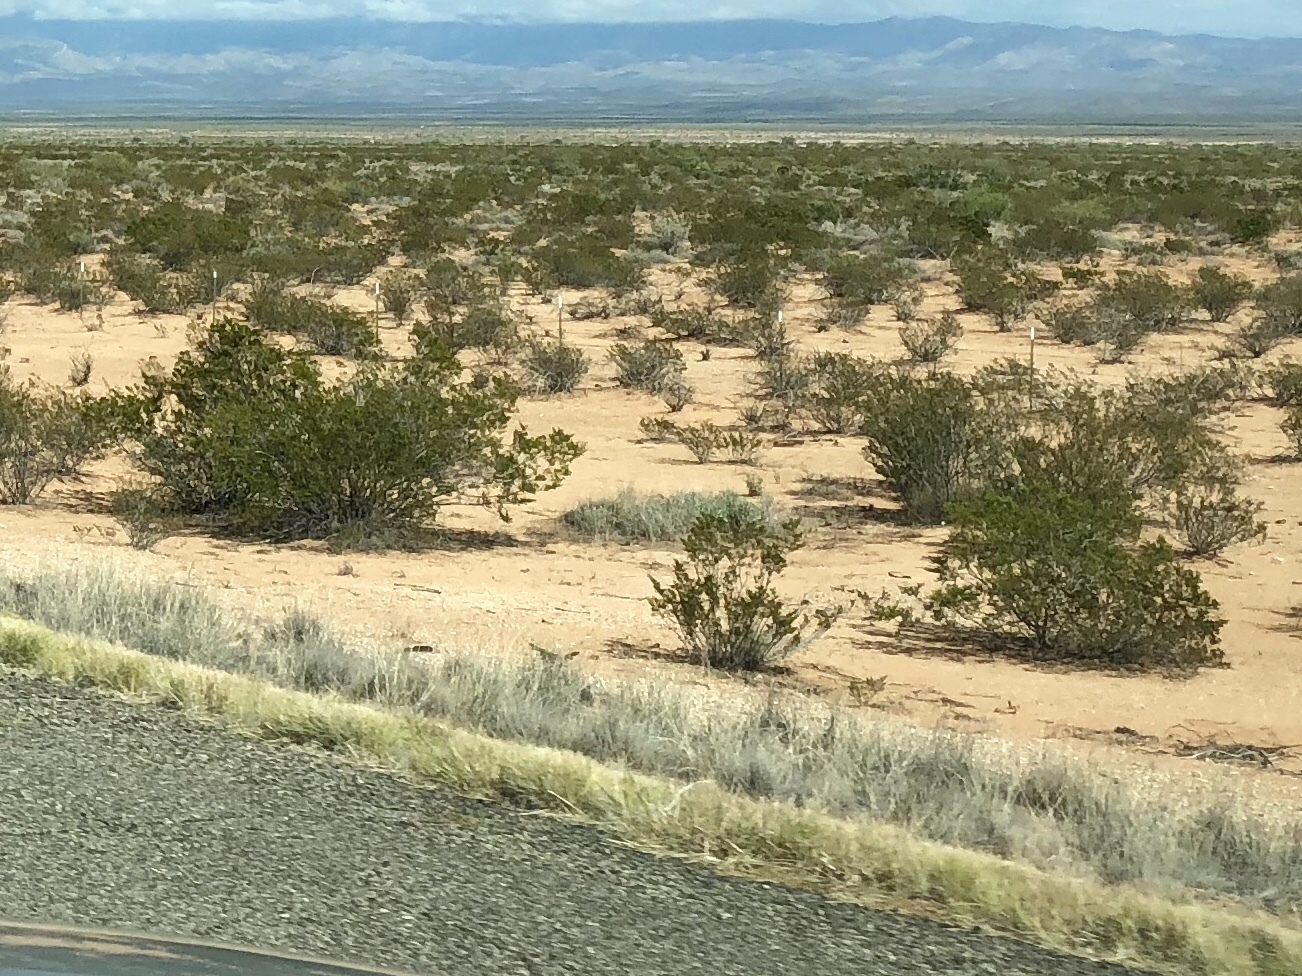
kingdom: Plantae
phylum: Tracheophyta
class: Magnoliopsida
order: Zygophyllales
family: Zygophyllaceae
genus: Larrea
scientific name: Larrea tridentata
